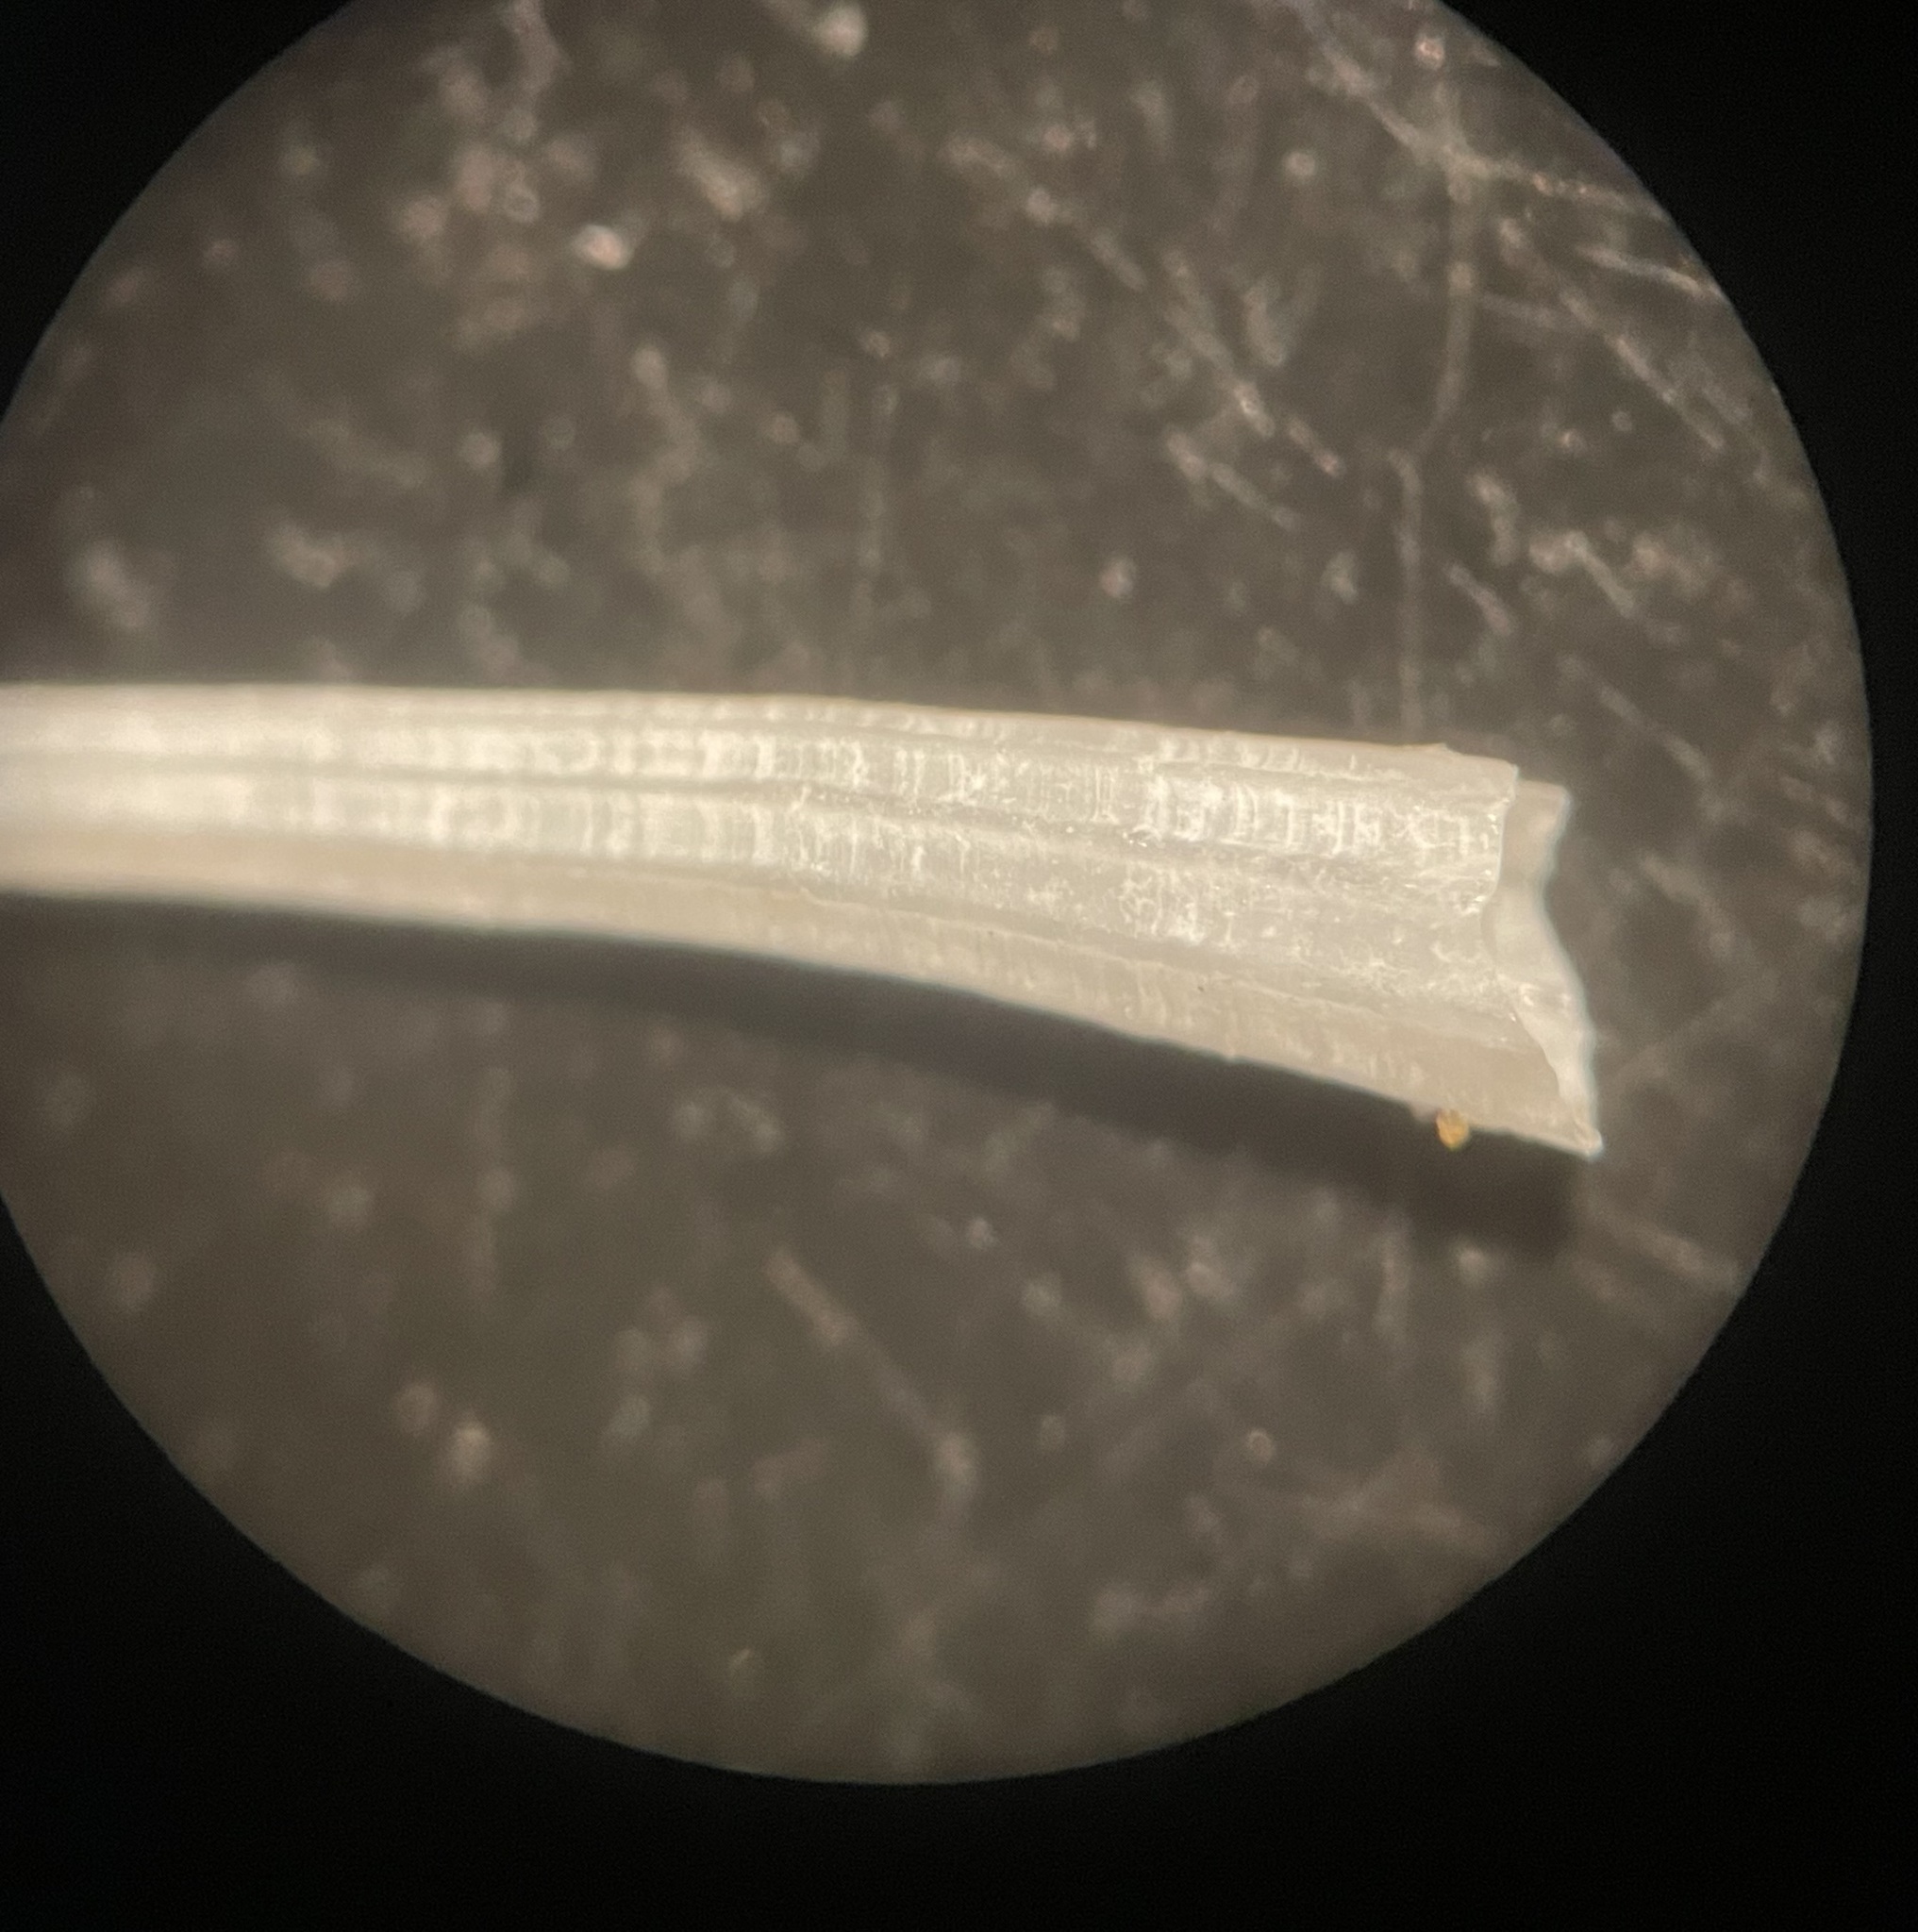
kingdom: Animalia
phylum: Mollusca
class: Scaphopoda
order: Dentaliida
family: Dentaliidae
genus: Antalis
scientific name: Antalis pilsbryi
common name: Pilsbry tuskshell
